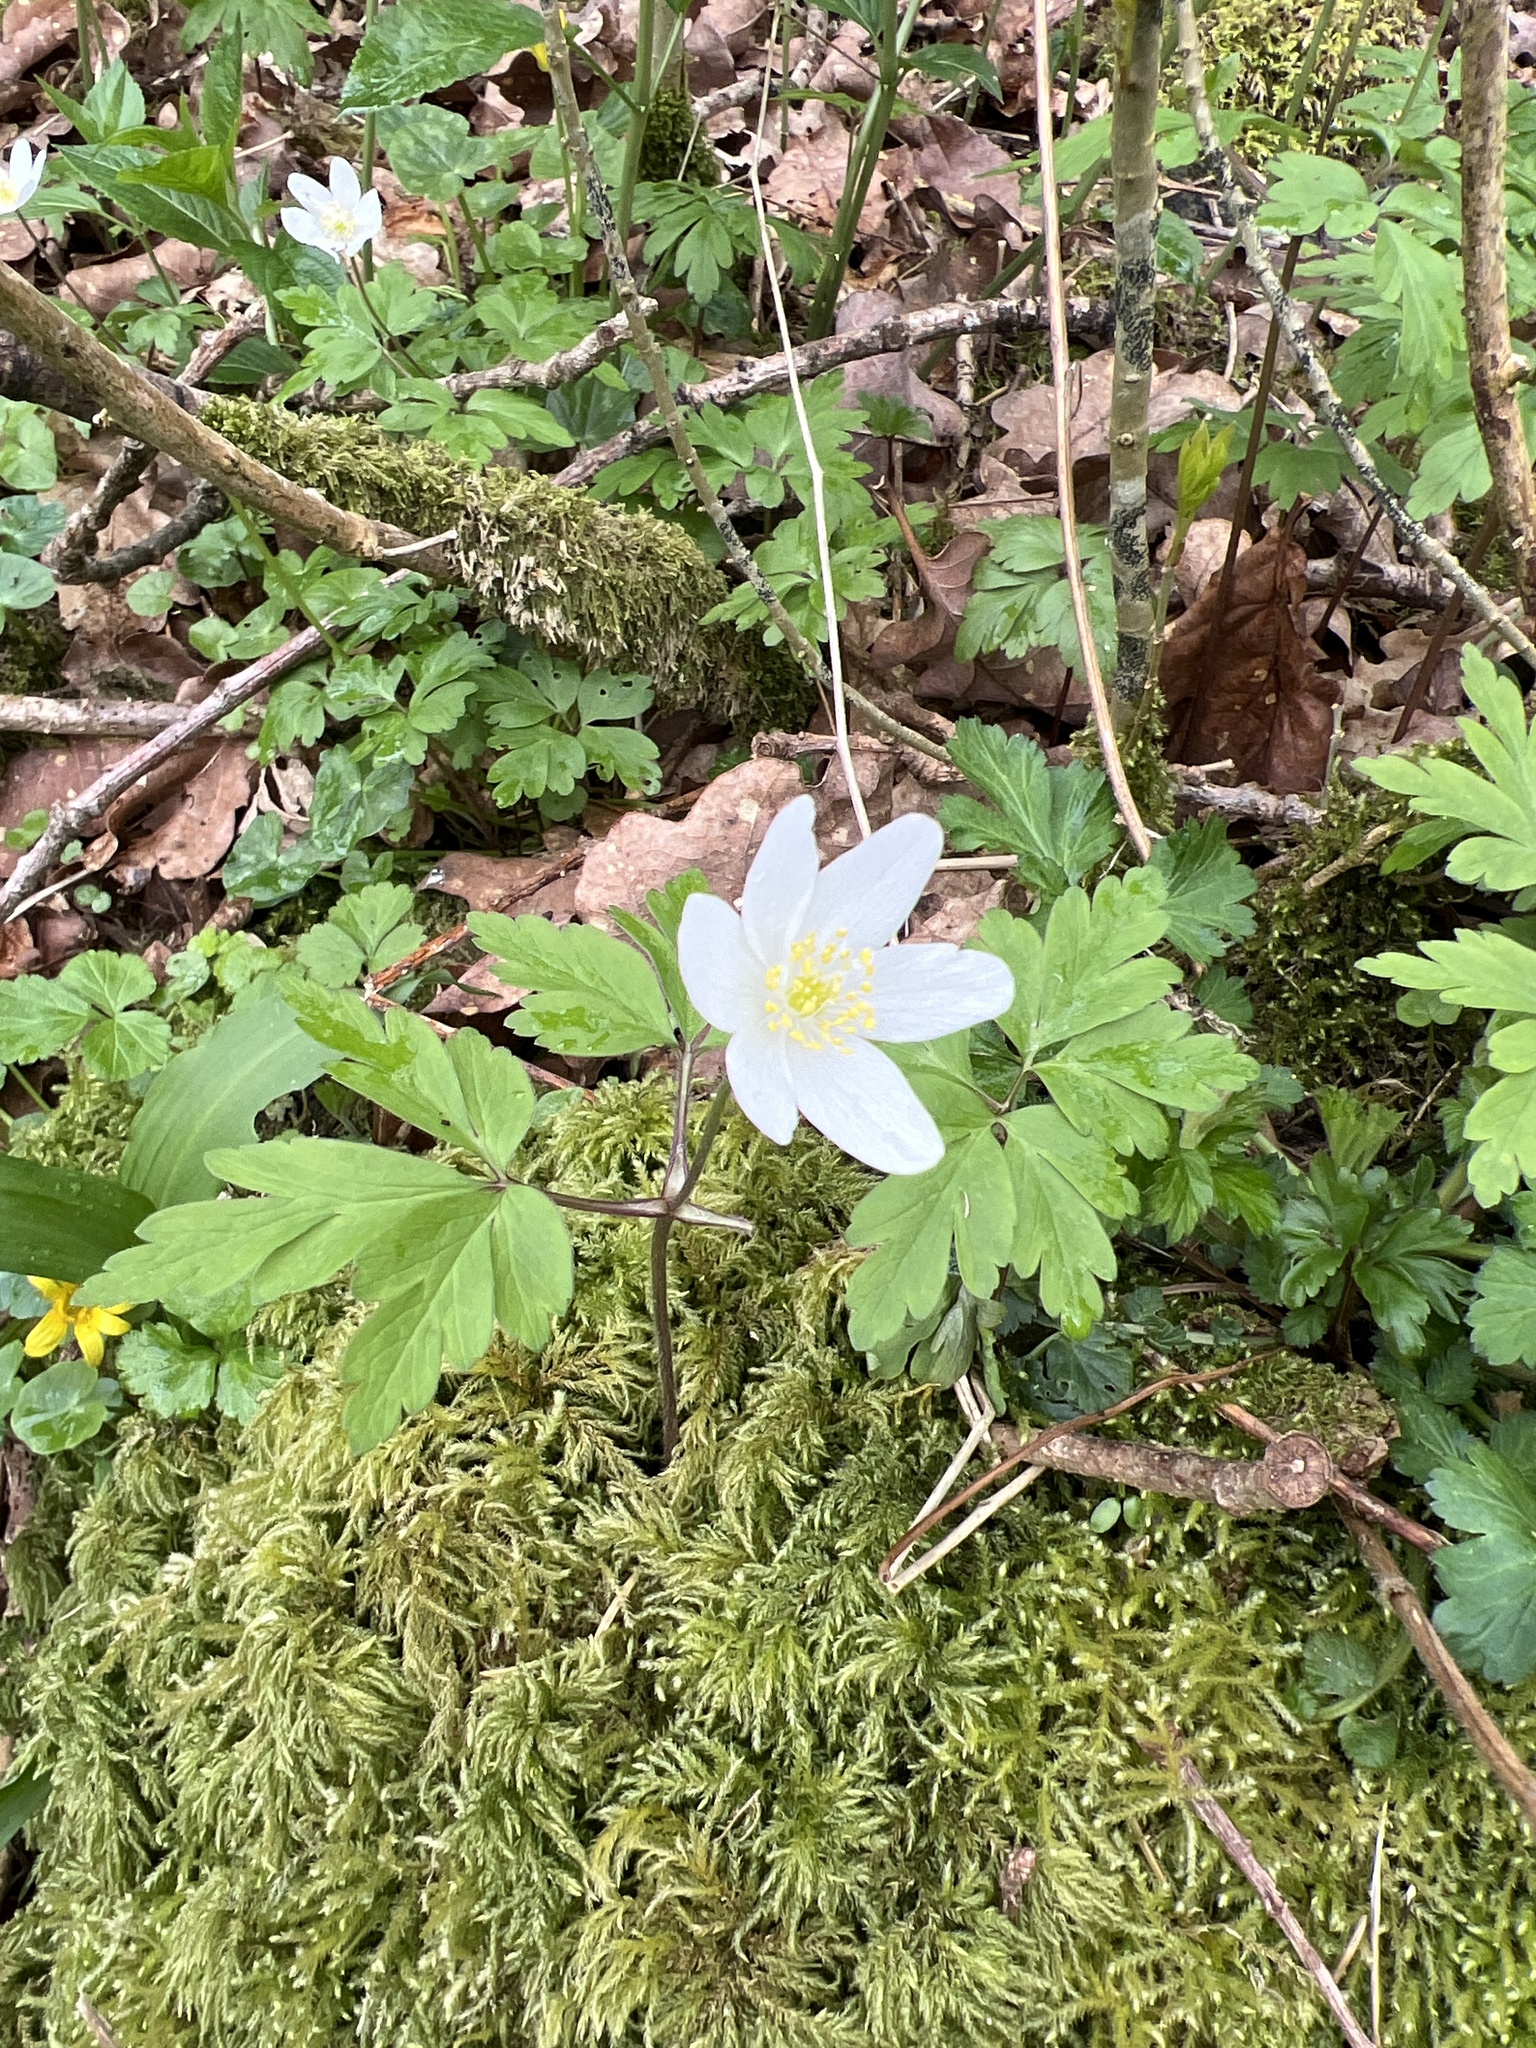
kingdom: Plantae
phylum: Tracheophyta
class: Magnoliopsida
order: Ranunculales
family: Ranunculaceae
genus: Anemone
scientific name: Anemone nemorosa
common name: Wood anemone
